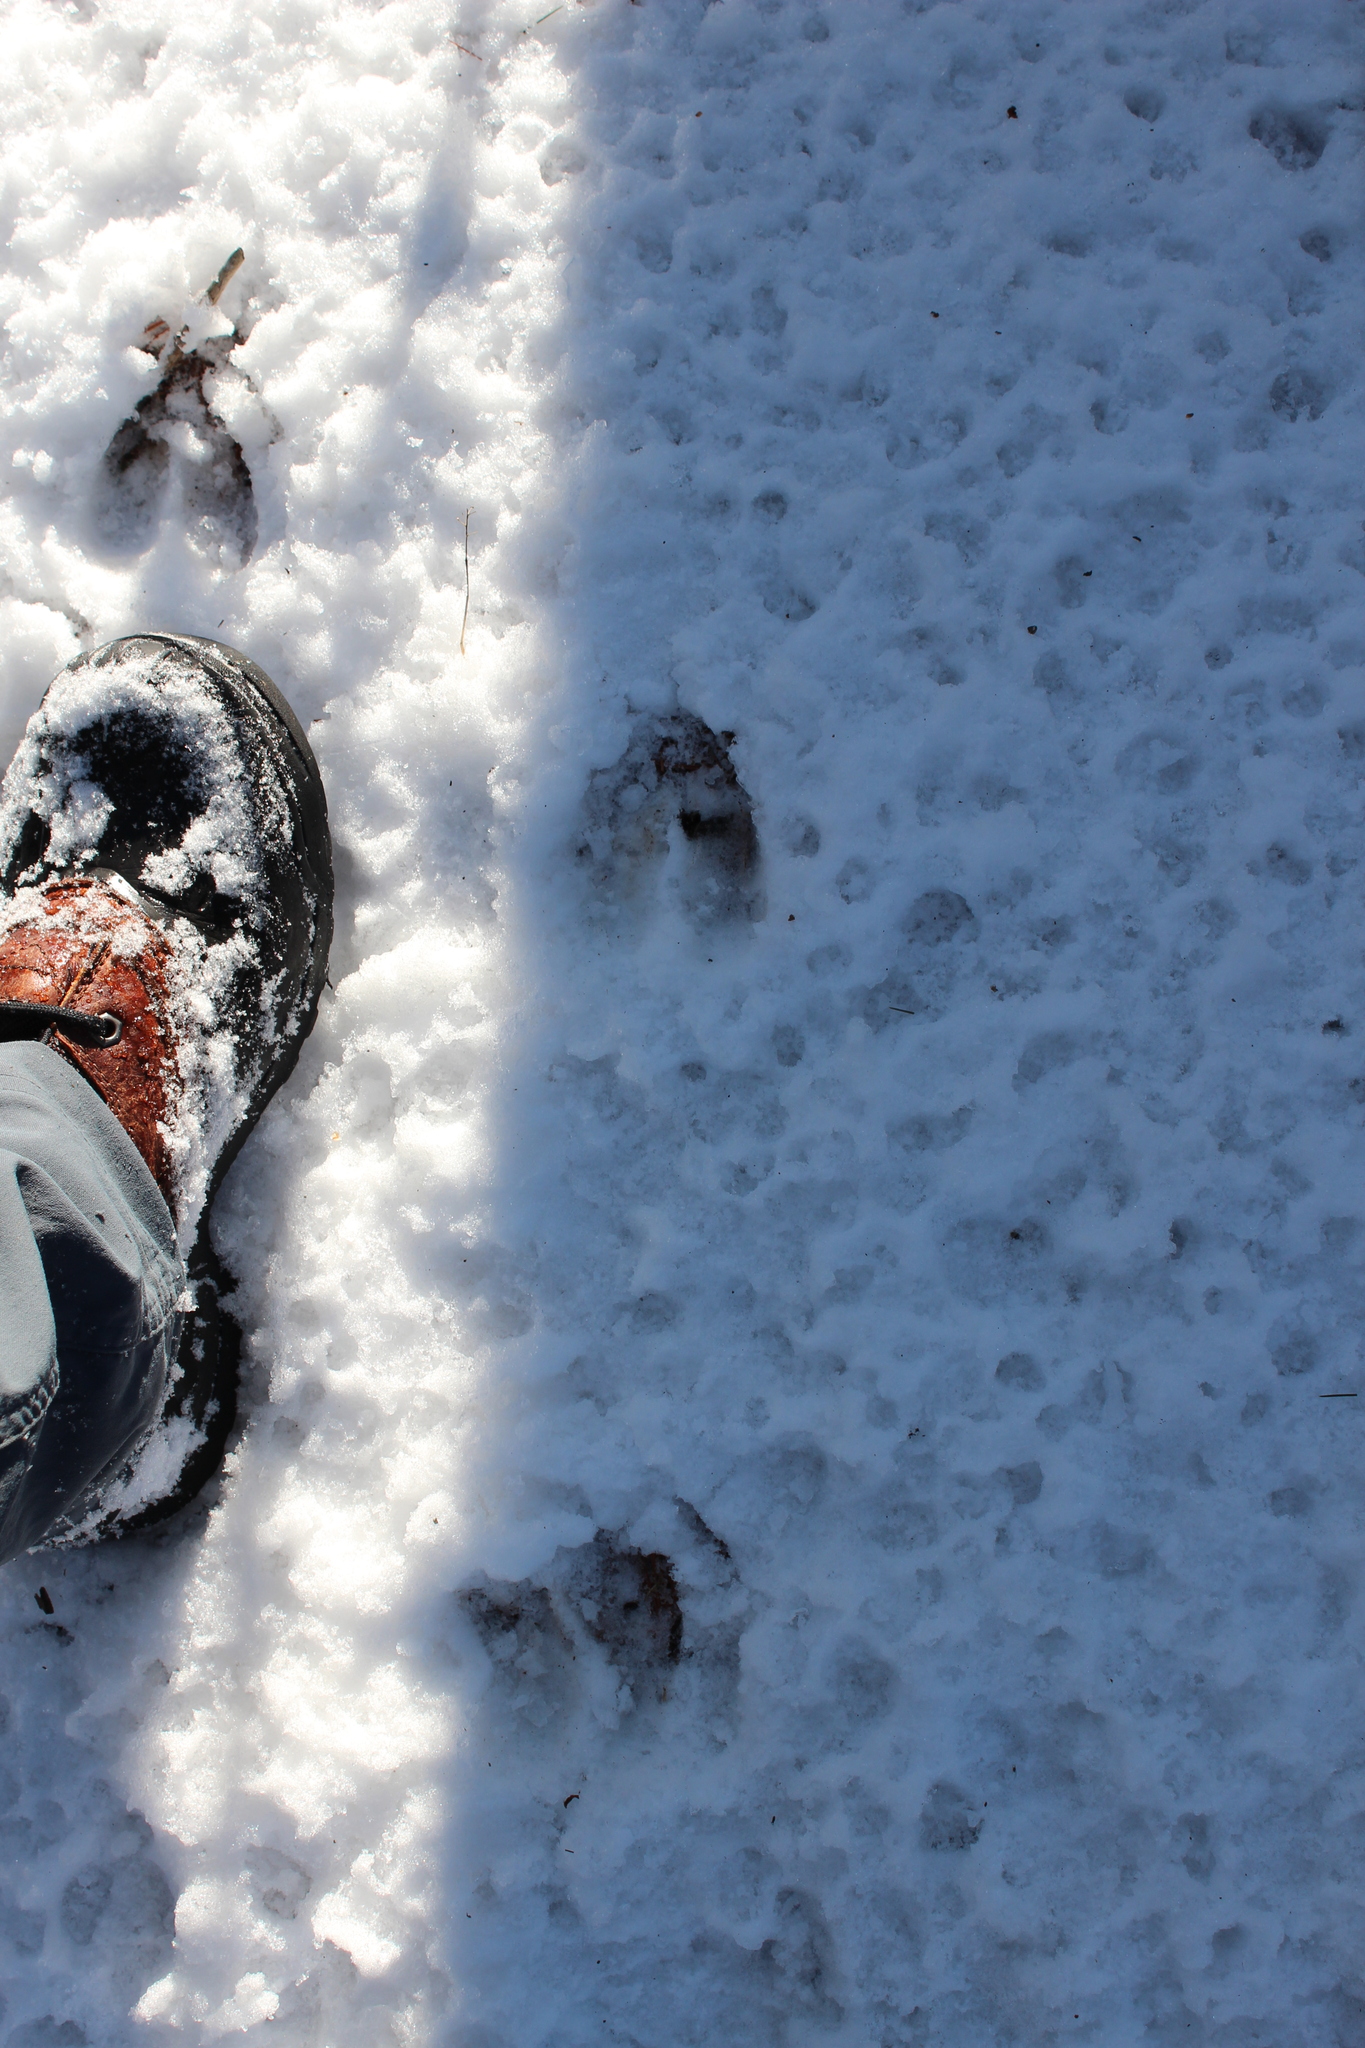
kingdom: Animalia
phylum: Chordata
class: Mammalia
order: Artiodactyla
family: Cervidae
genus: Odocoileus
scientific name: Odocoileus virginianus
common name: White-tailed deer
